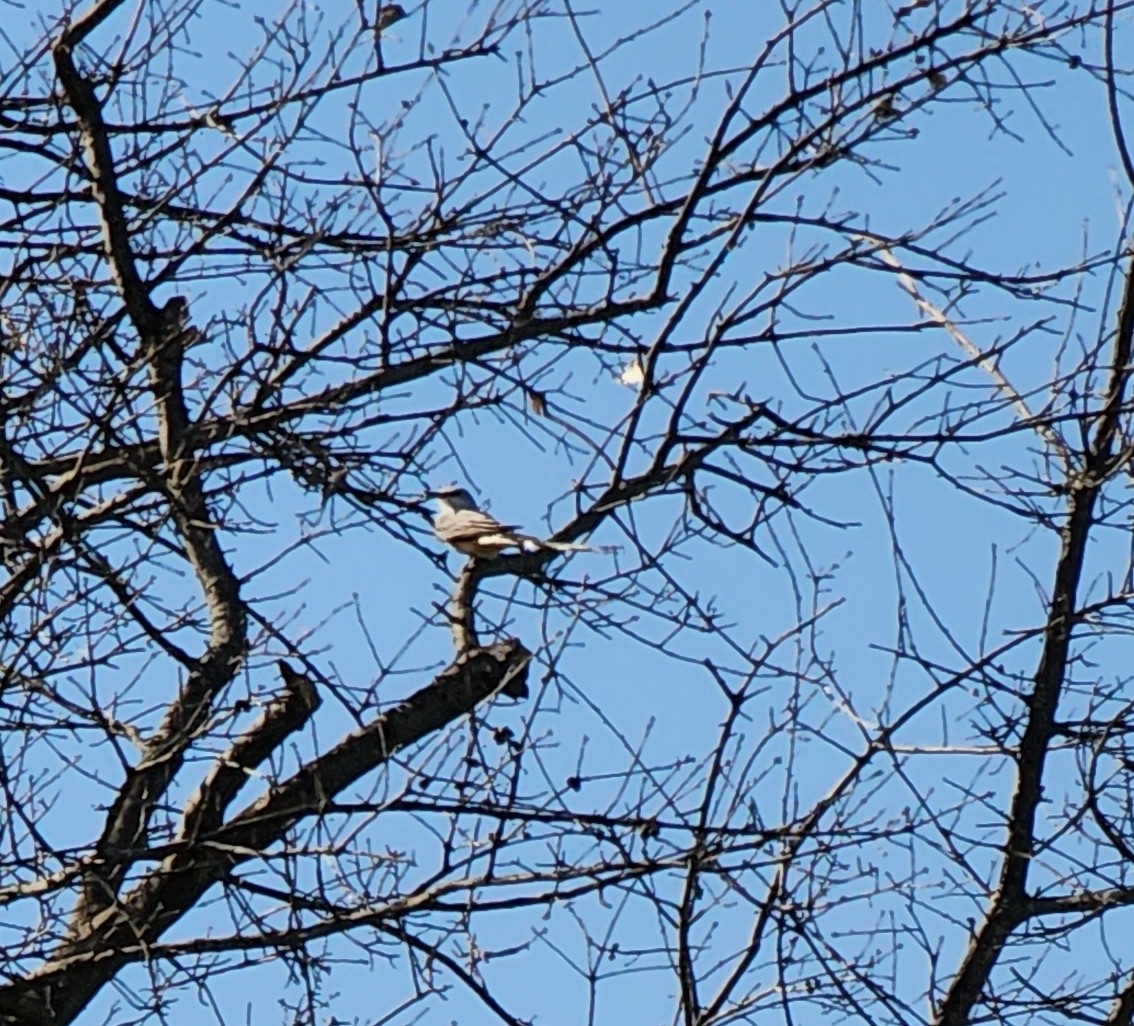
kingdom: Animalia
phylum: Chordata
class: Aves
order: Passeriformes
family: Tyrannidae
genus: Tyrannus
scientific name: Tyrannus forficatus
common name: Scissor-tailed flycatcher
